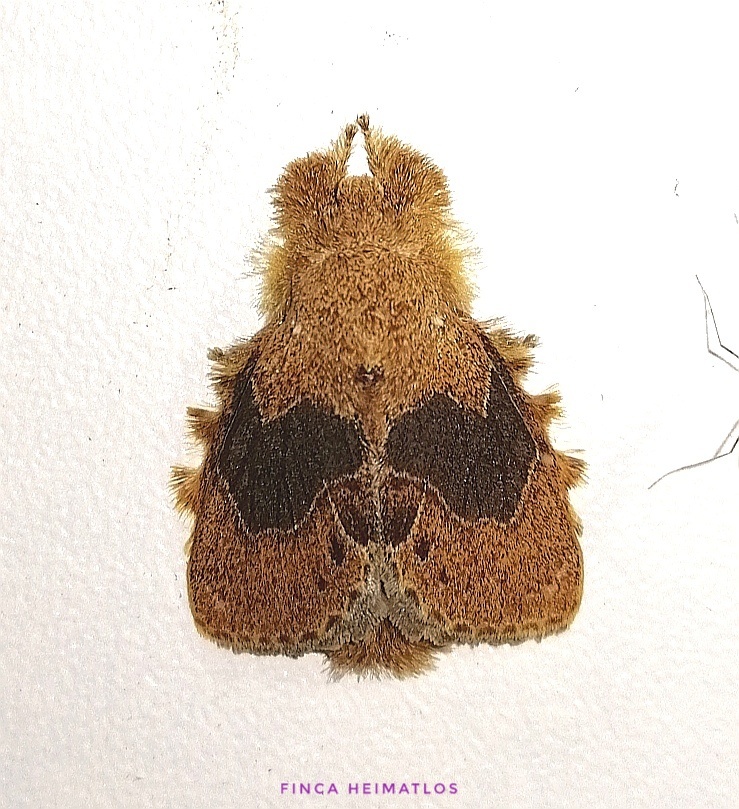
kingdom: Animalia
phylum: Arthropoda
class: Insecta
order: Lepidoptera
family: Lasiocampidae
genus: Euglyphis
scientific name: Euglyphis vitripuncta
